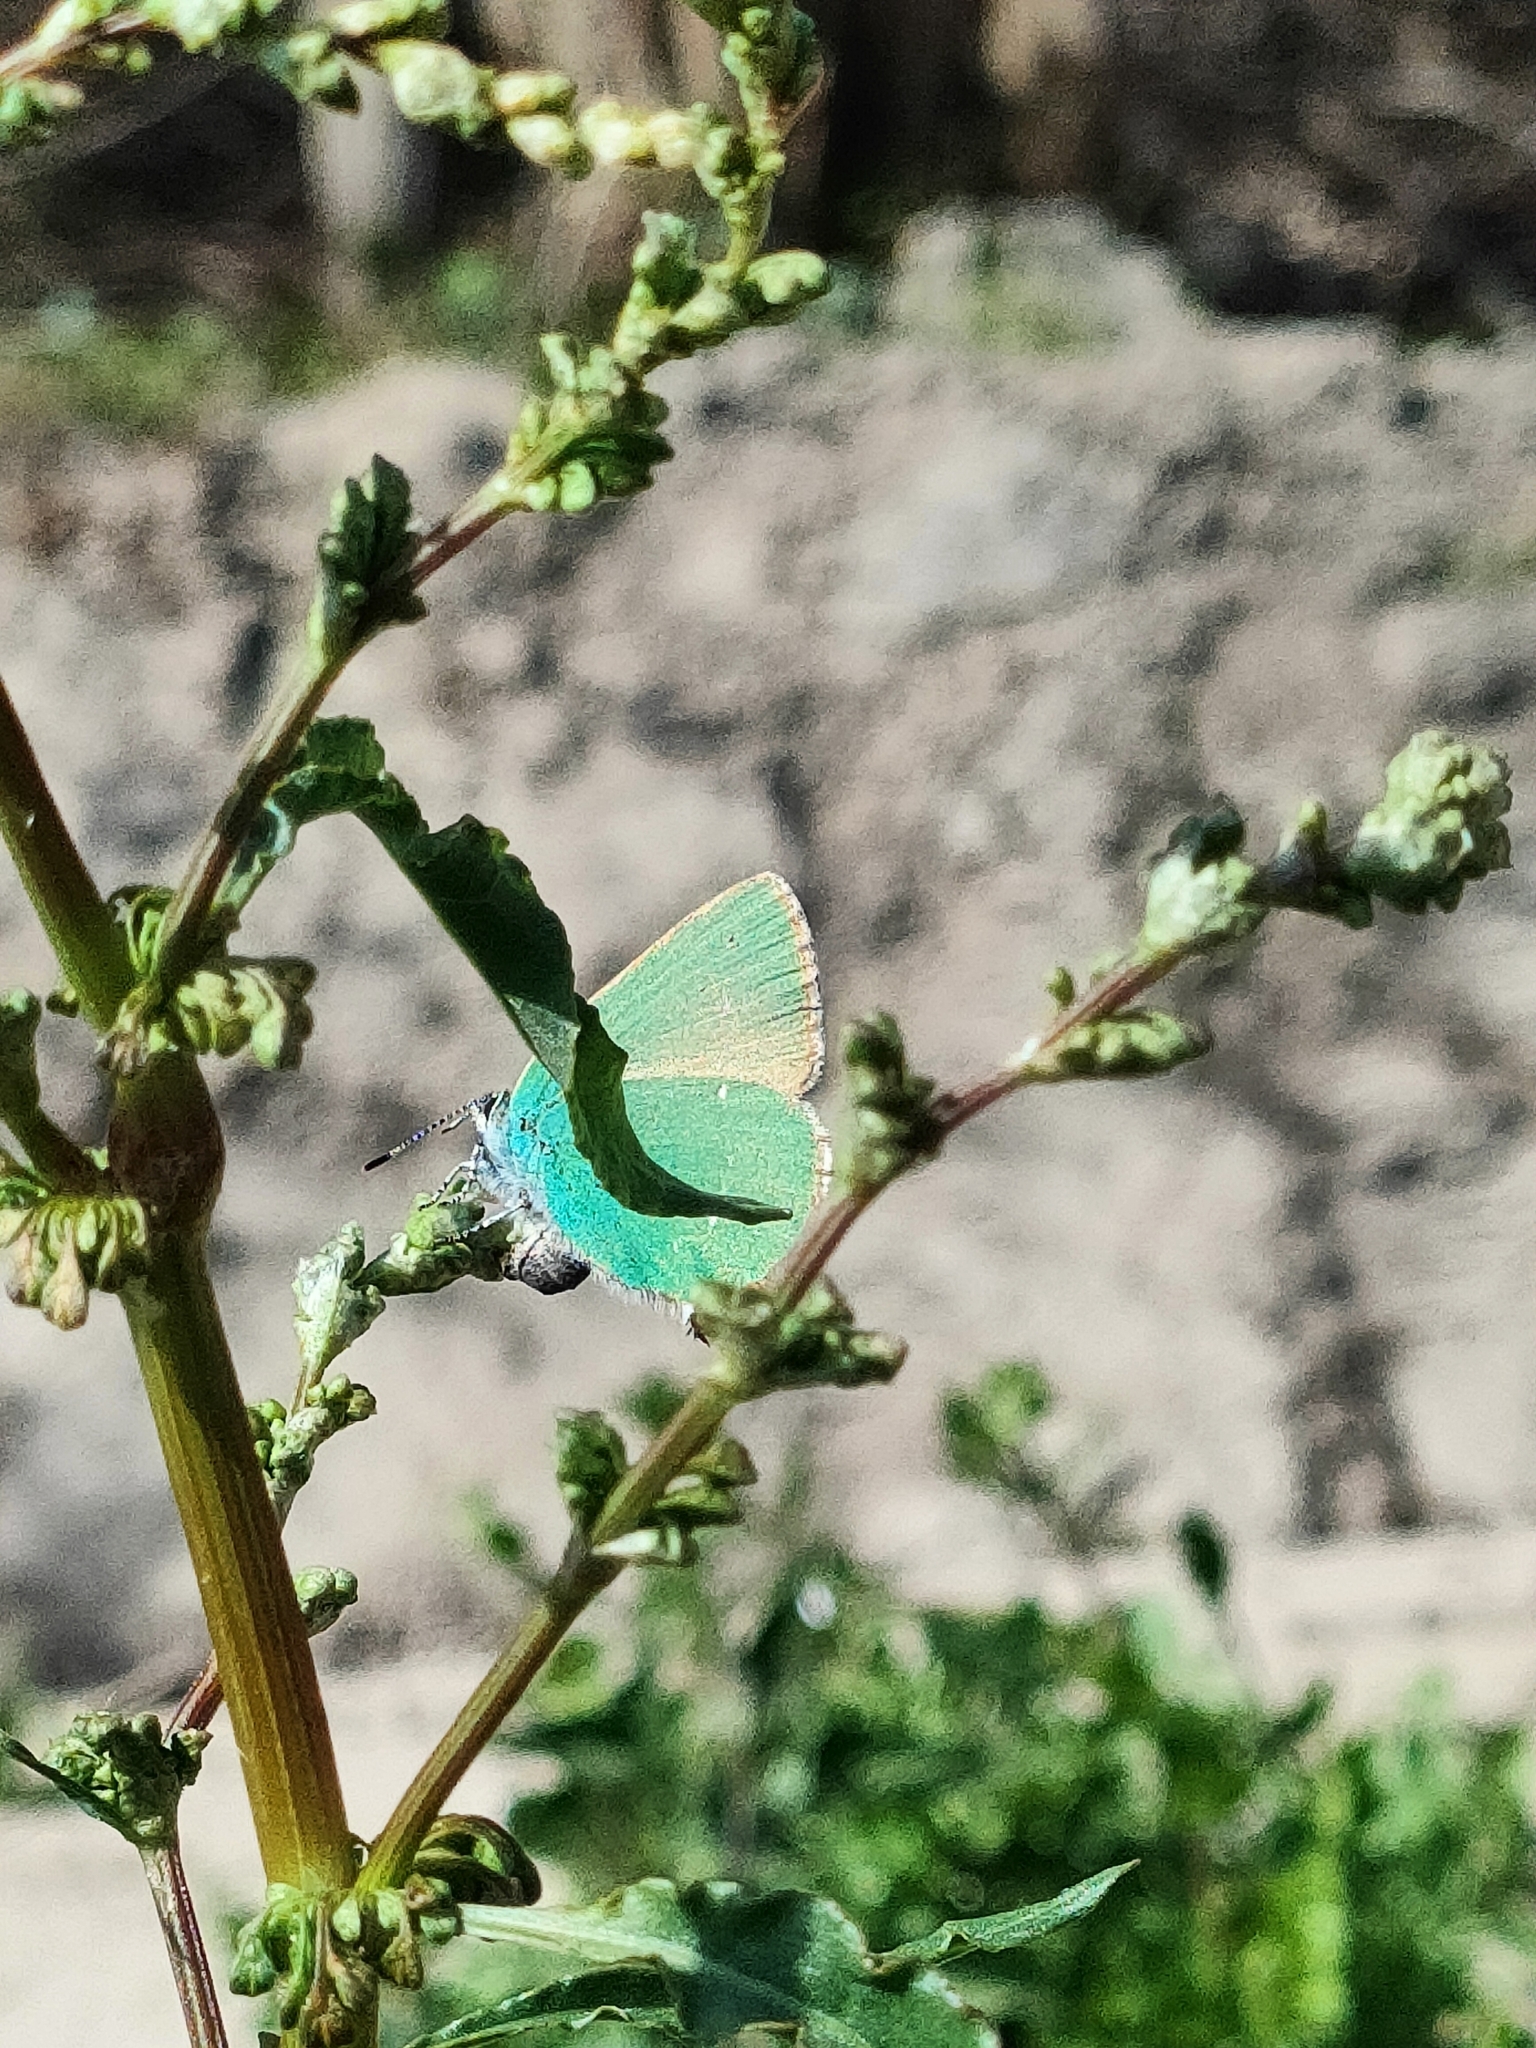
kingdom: Animalia
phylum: Arthropoda
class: Insecta
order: Lepidoptera
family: Lycaenidae
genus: Callophrys
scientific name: Callophrys rubi
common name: Green hairstreak
